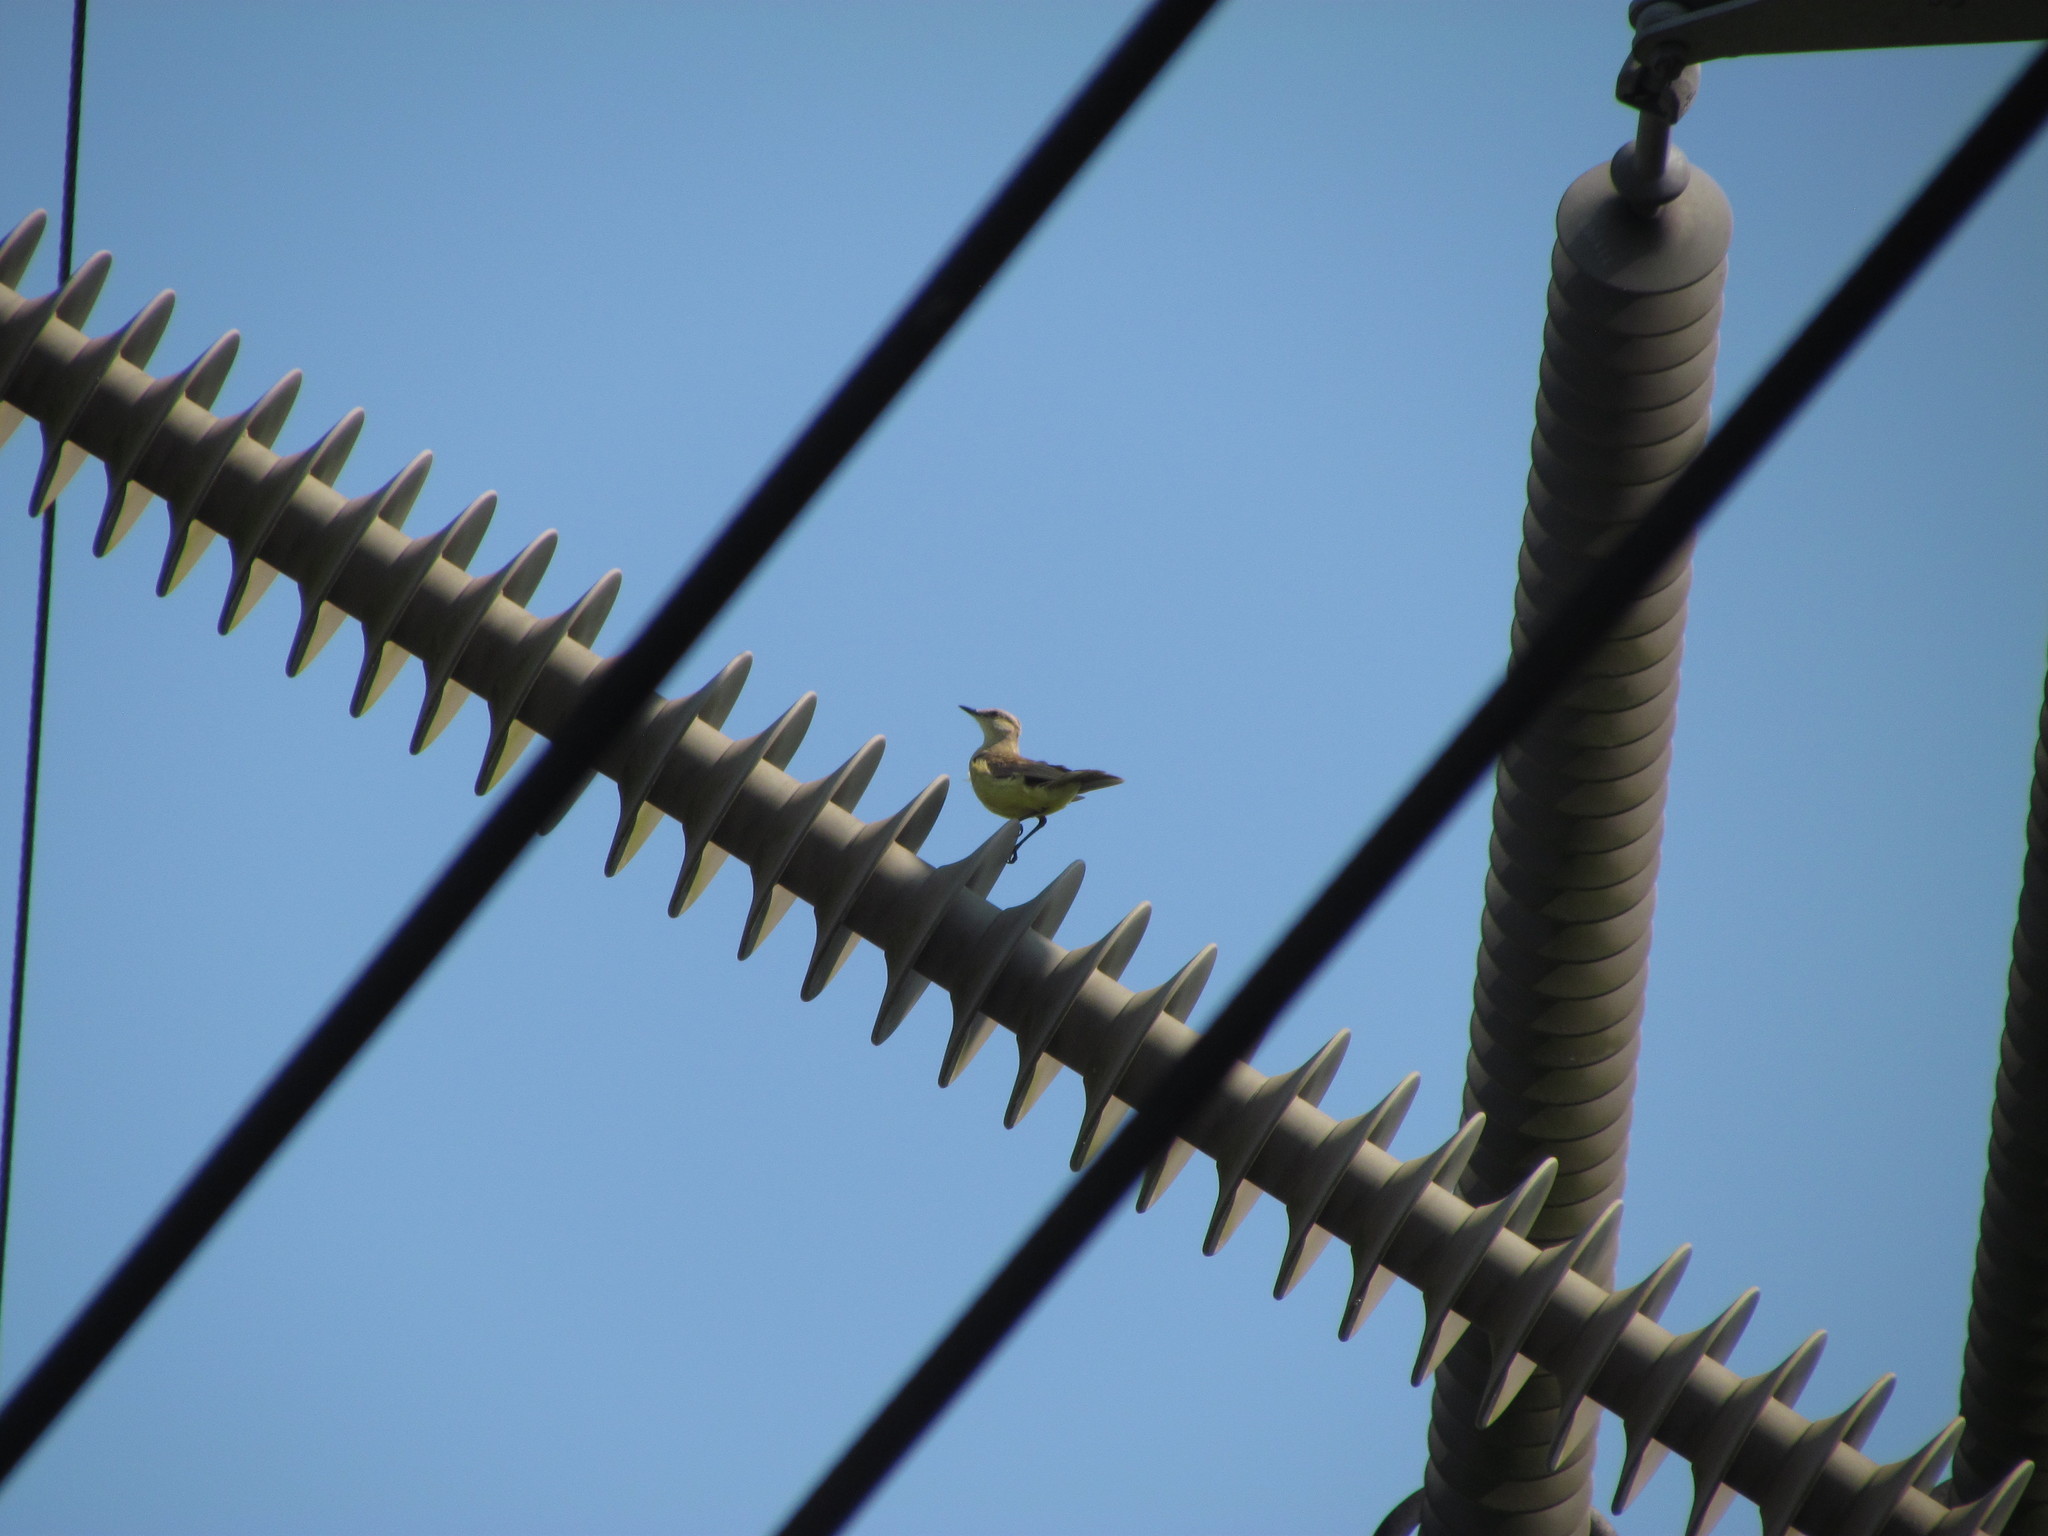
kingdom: Animalia
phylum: Chordata
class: Aves
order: Passeriformes
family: Tyrannidae
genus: Machetornis
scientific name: Machetornis rixosa
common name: Cattle tyrant
